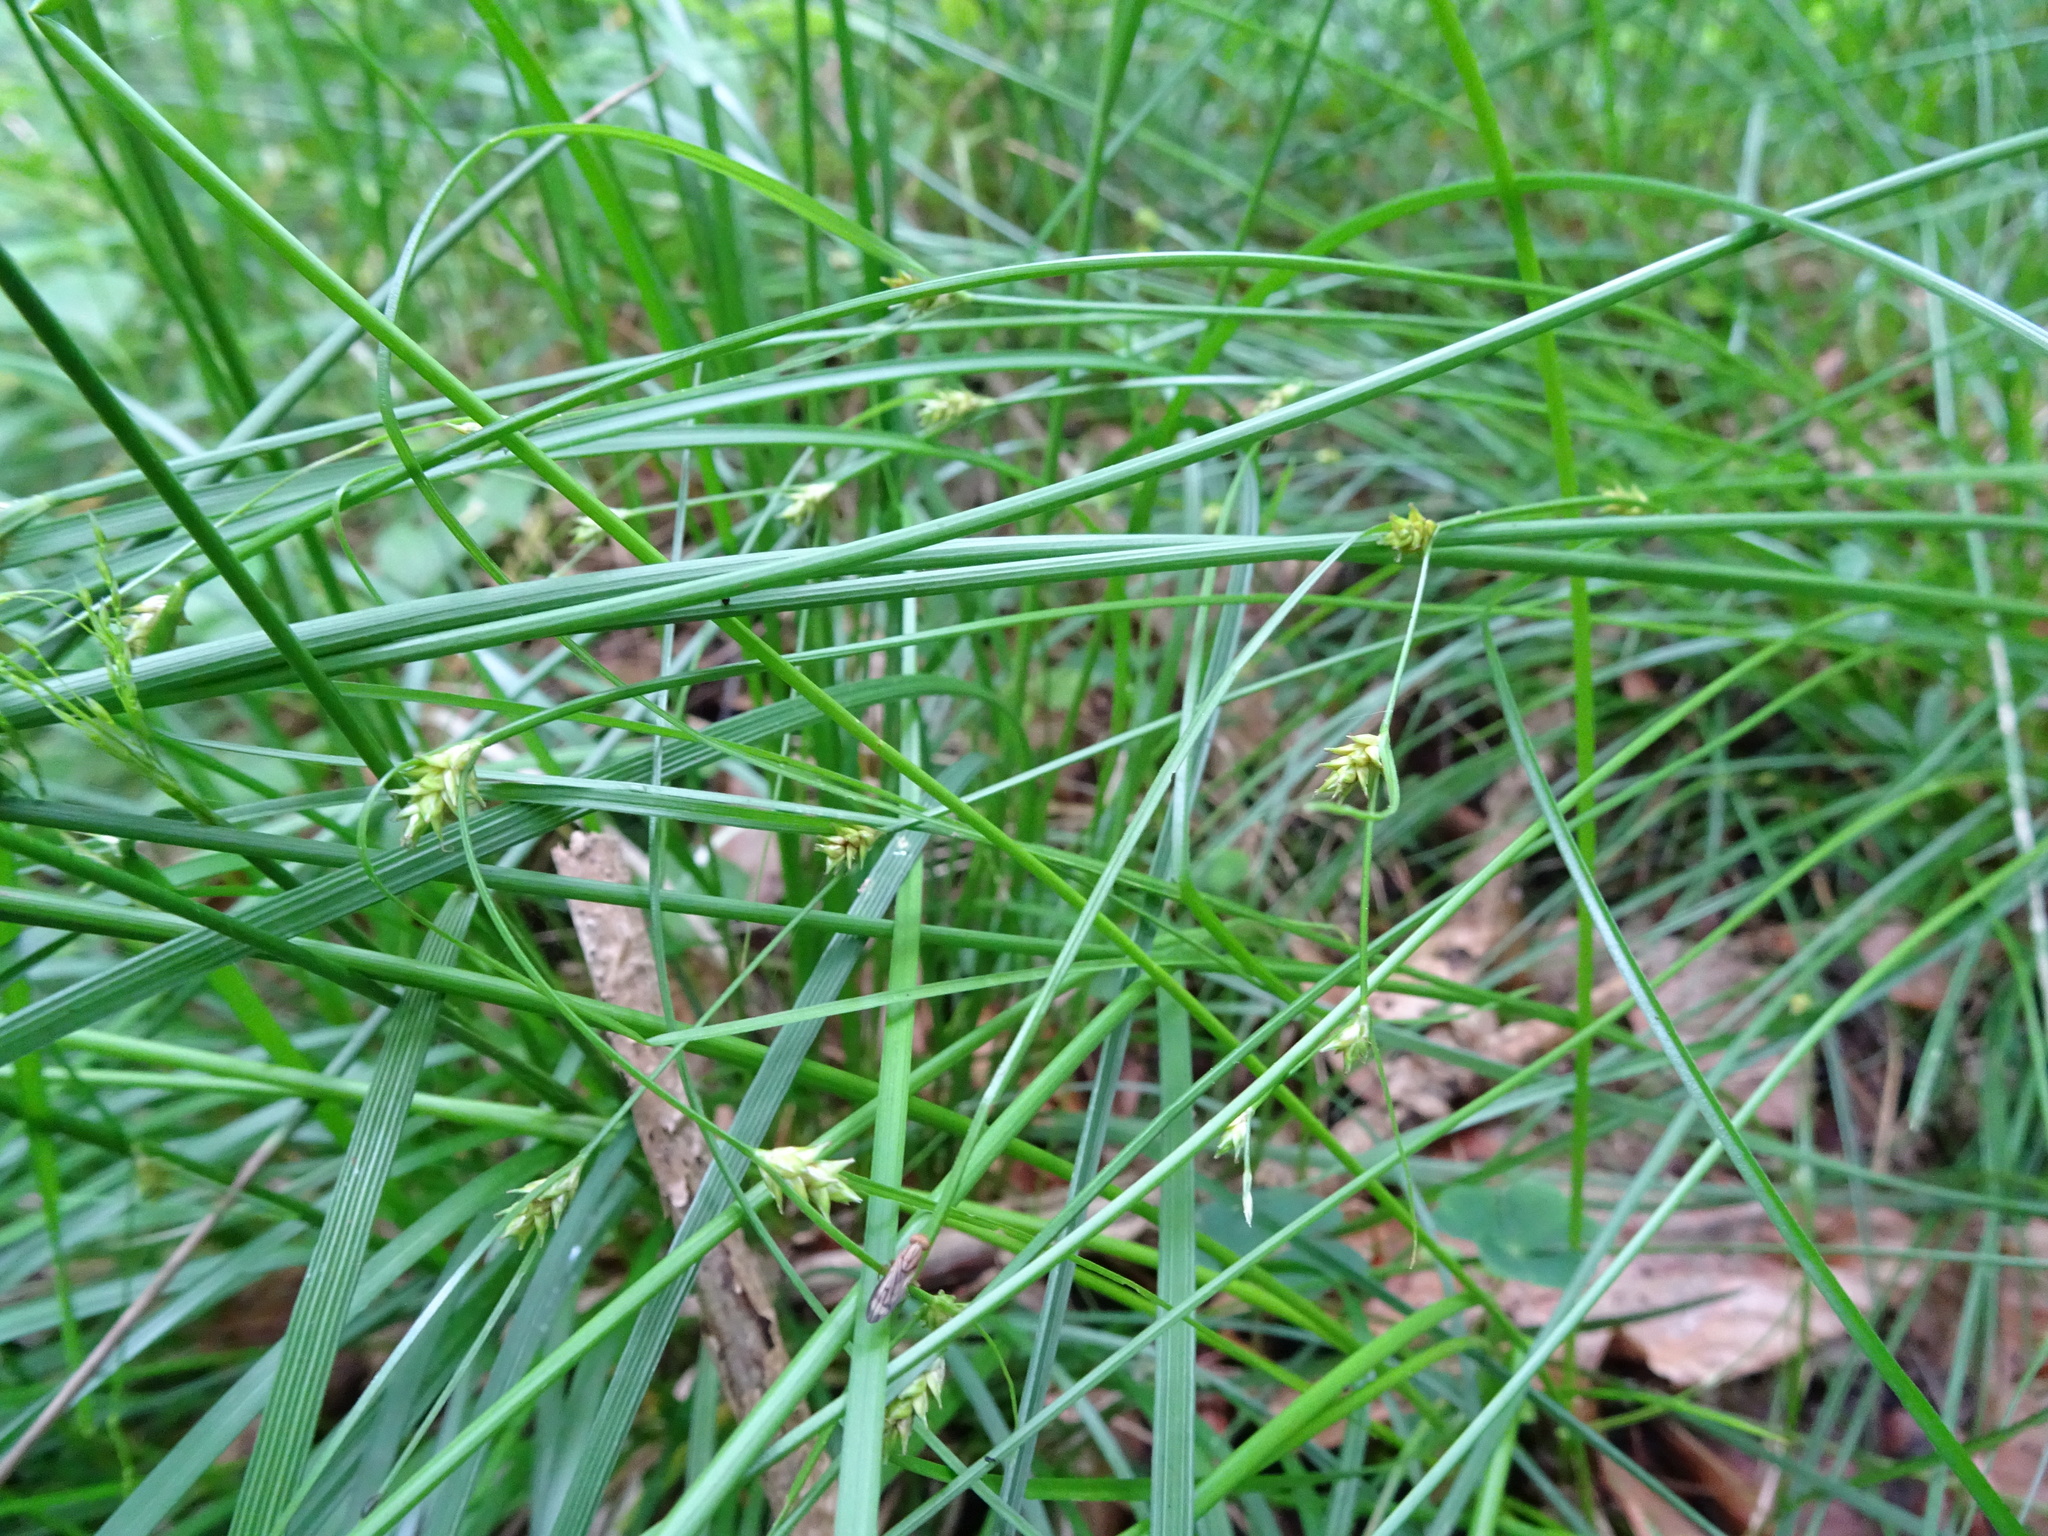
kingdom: Plantae
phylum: Tracheophyta
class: Liliopsida
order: Poales
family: Cyperaceae
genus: Carex
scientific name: Carex remota
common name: Remote sedge
